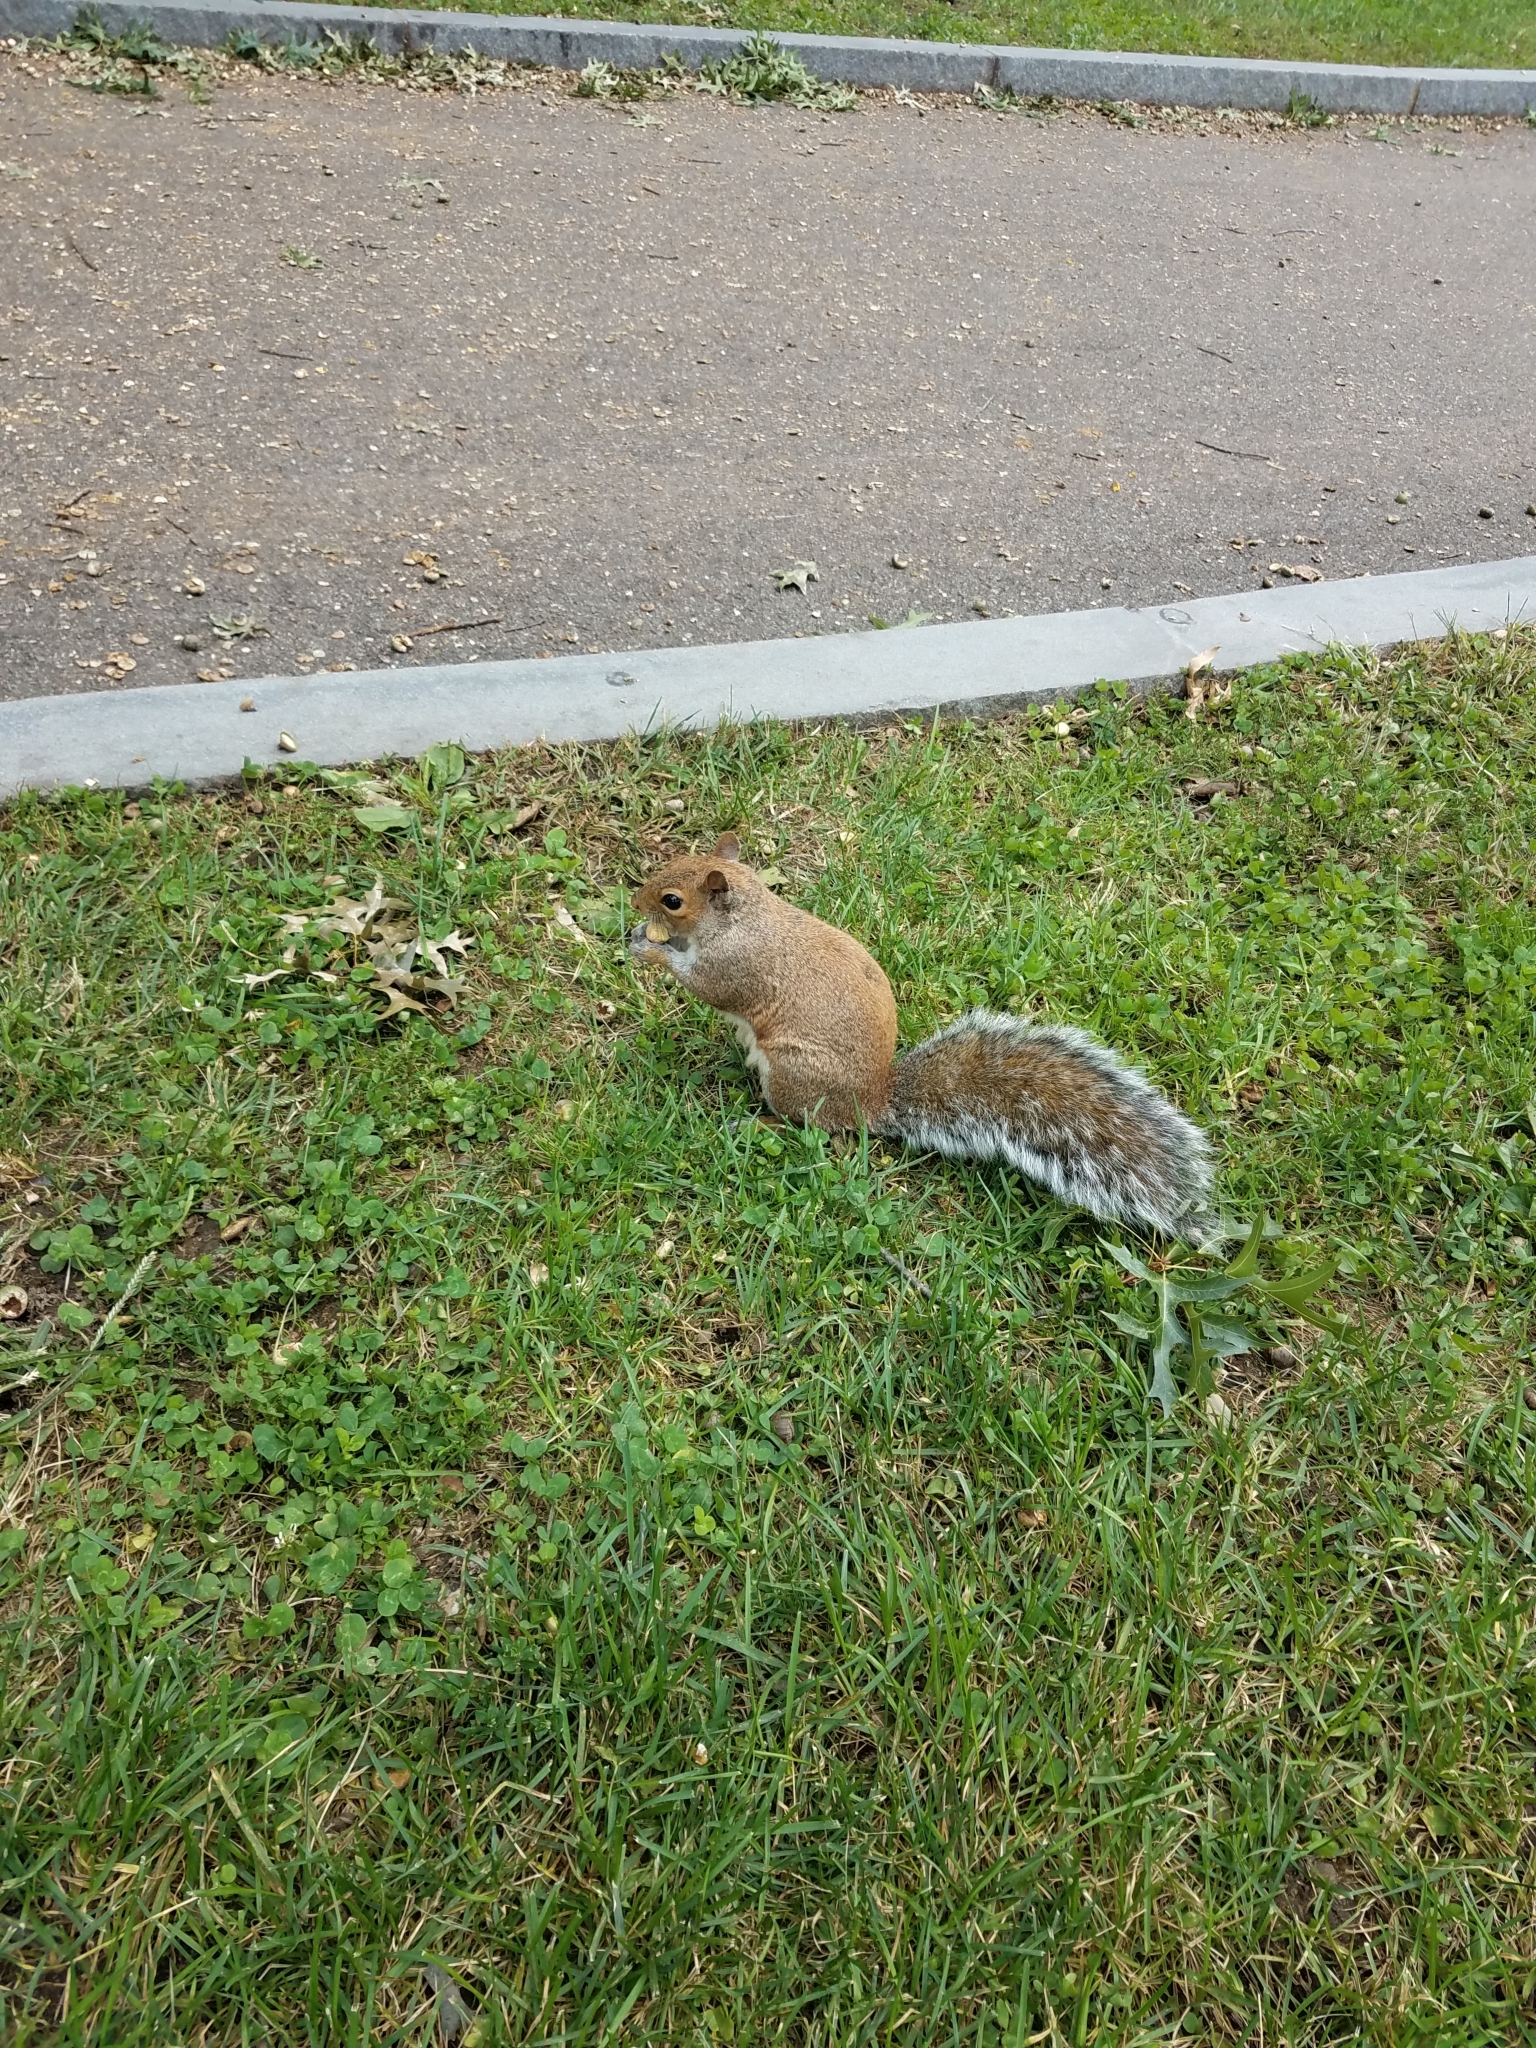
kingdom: Animalia
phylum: Chordata
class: Mammalia
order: Rodentia
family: Sciuridae
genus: Sciurus
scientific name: Sciurus carolinensis
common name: Eastern gray squirrel
